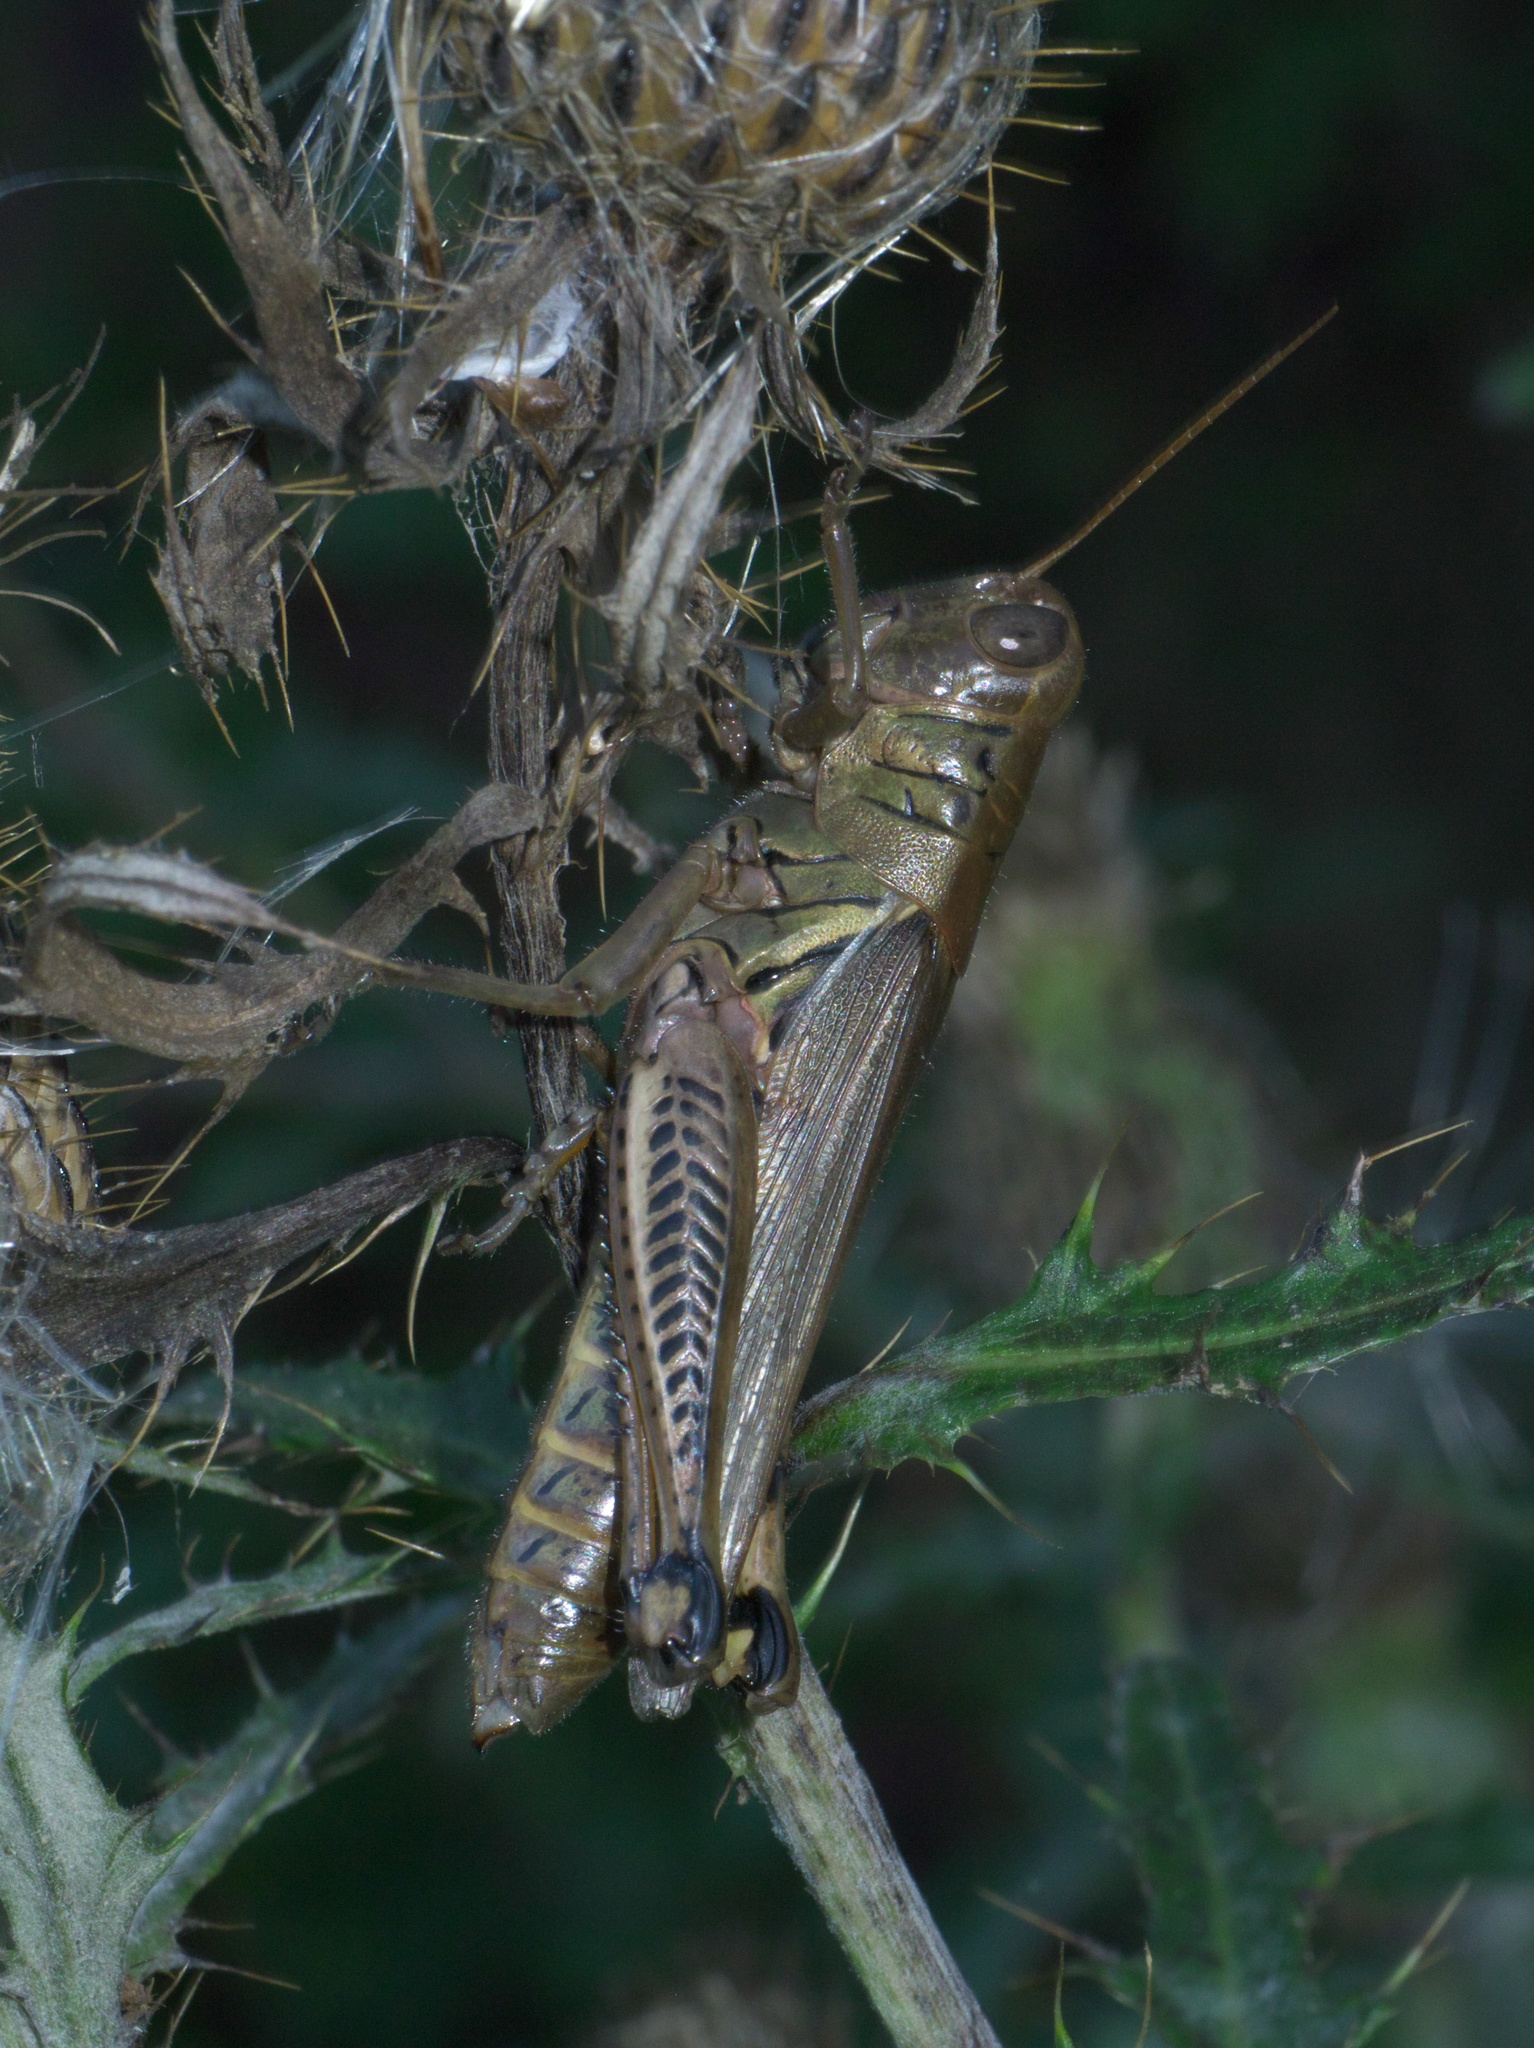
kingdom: Animalia
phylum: Arthropoda
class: Insecta
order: Orthoptera
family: Acrididae
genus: Melanoplus
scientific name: Melanoplus differentialis
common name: Differential grasshopper
